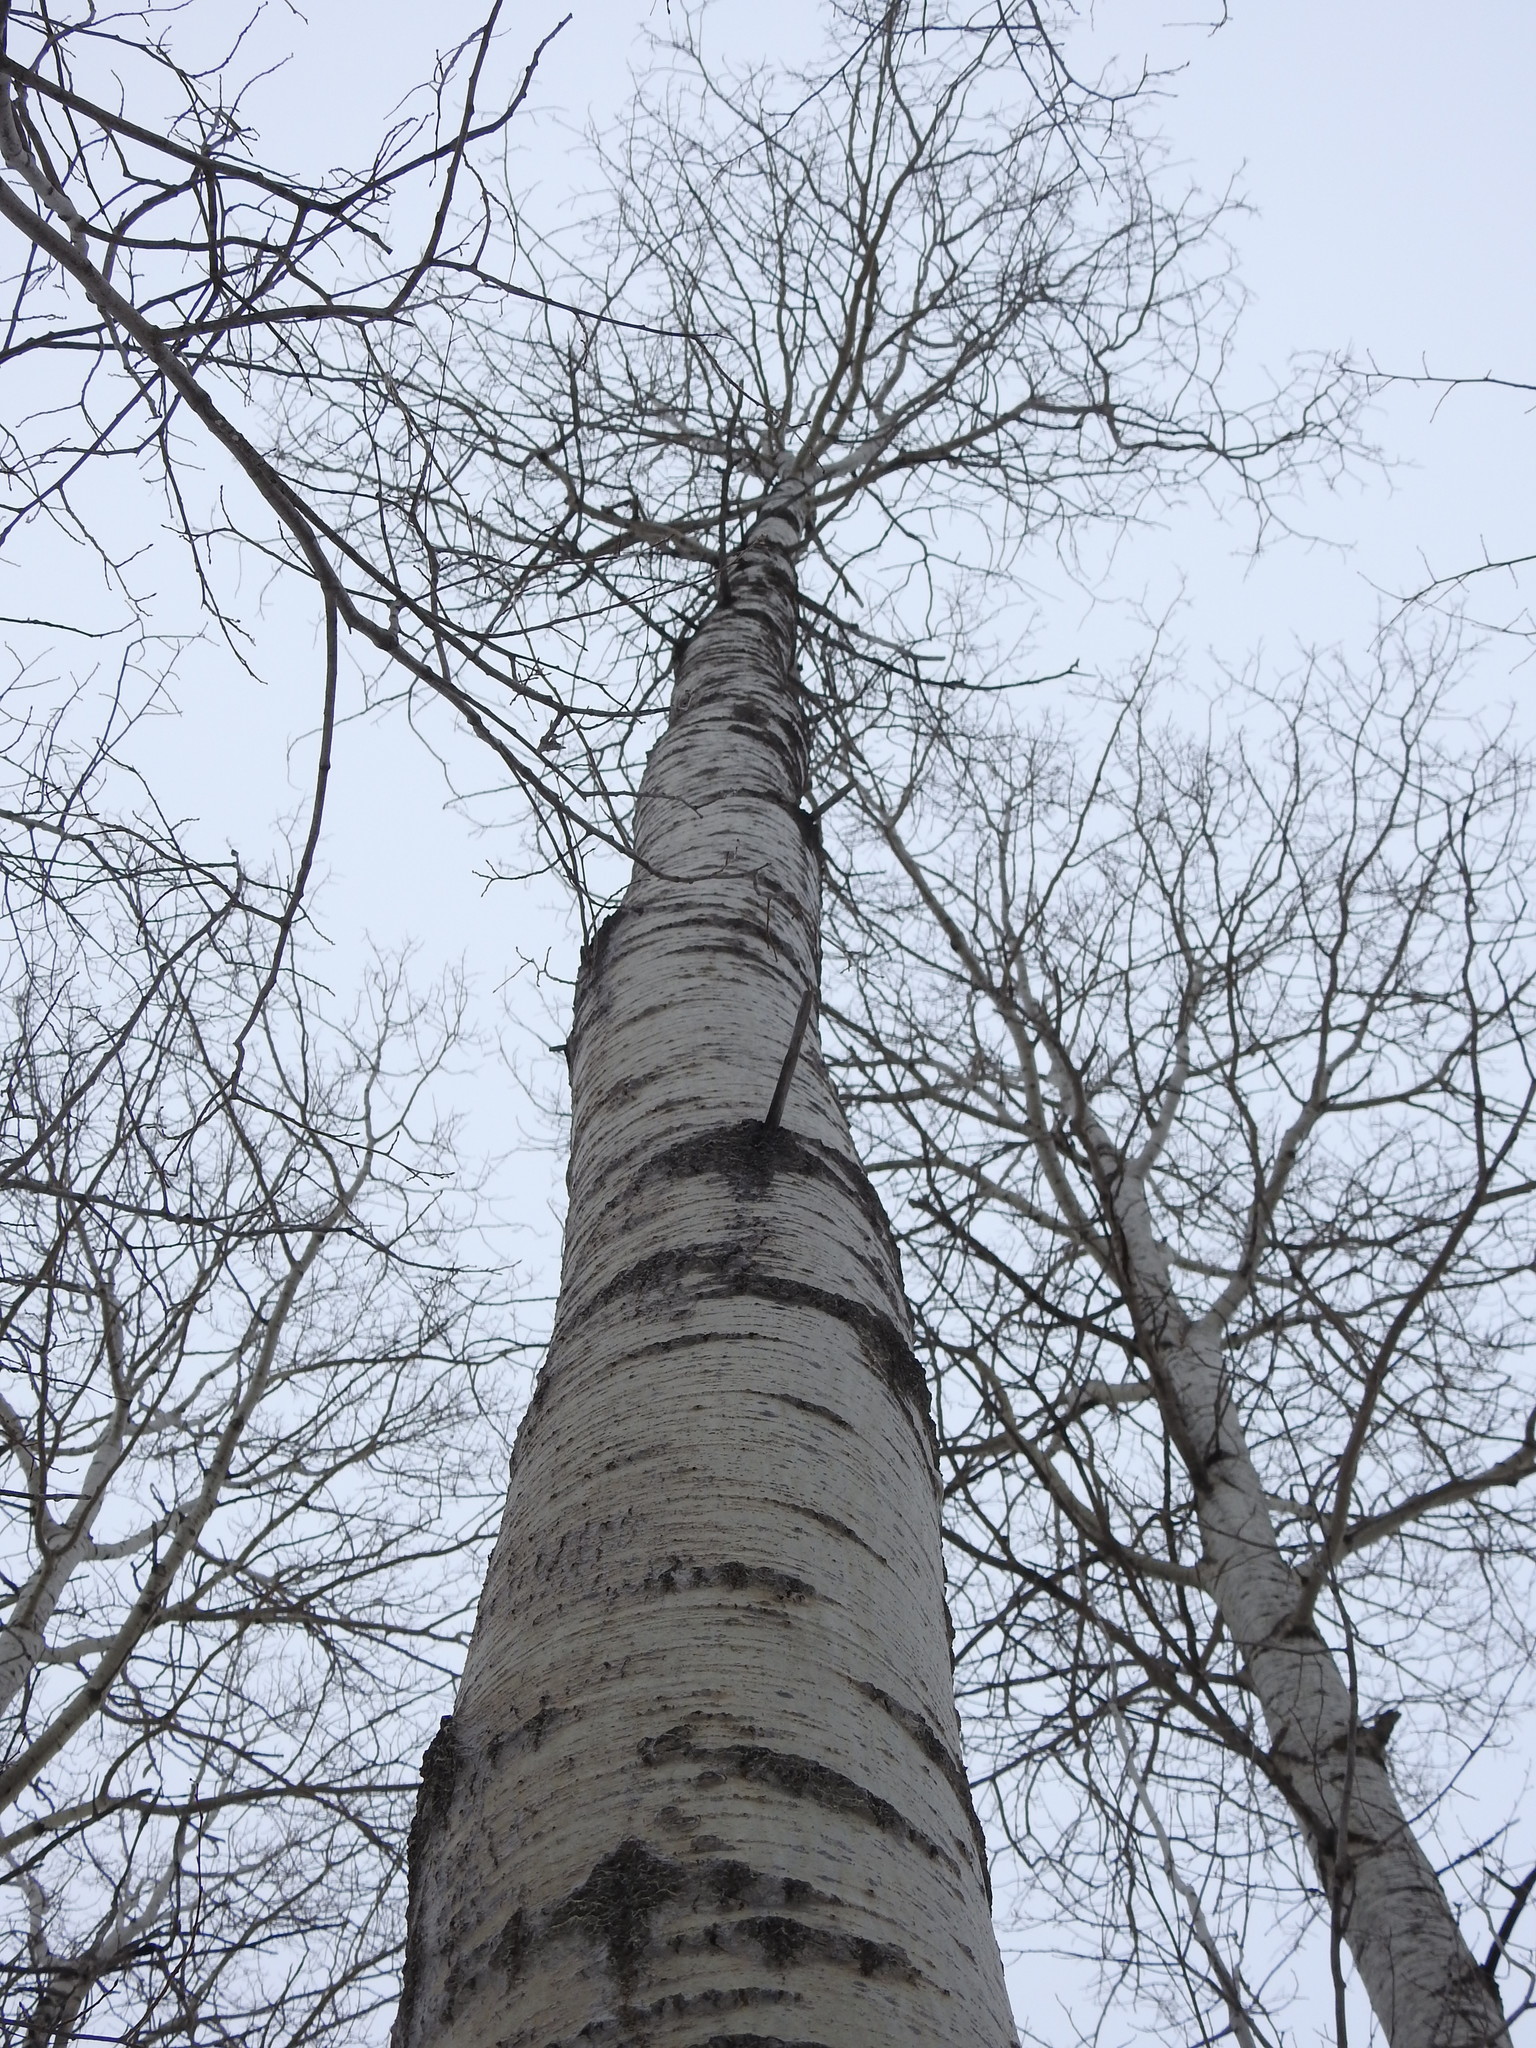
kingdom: Plantae
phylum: Tracheophyta
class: Magnoliopsida
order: Malpighiales
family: Salicaceae
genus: Populus
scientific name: Populus tremuloides
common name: Quaking aspen
